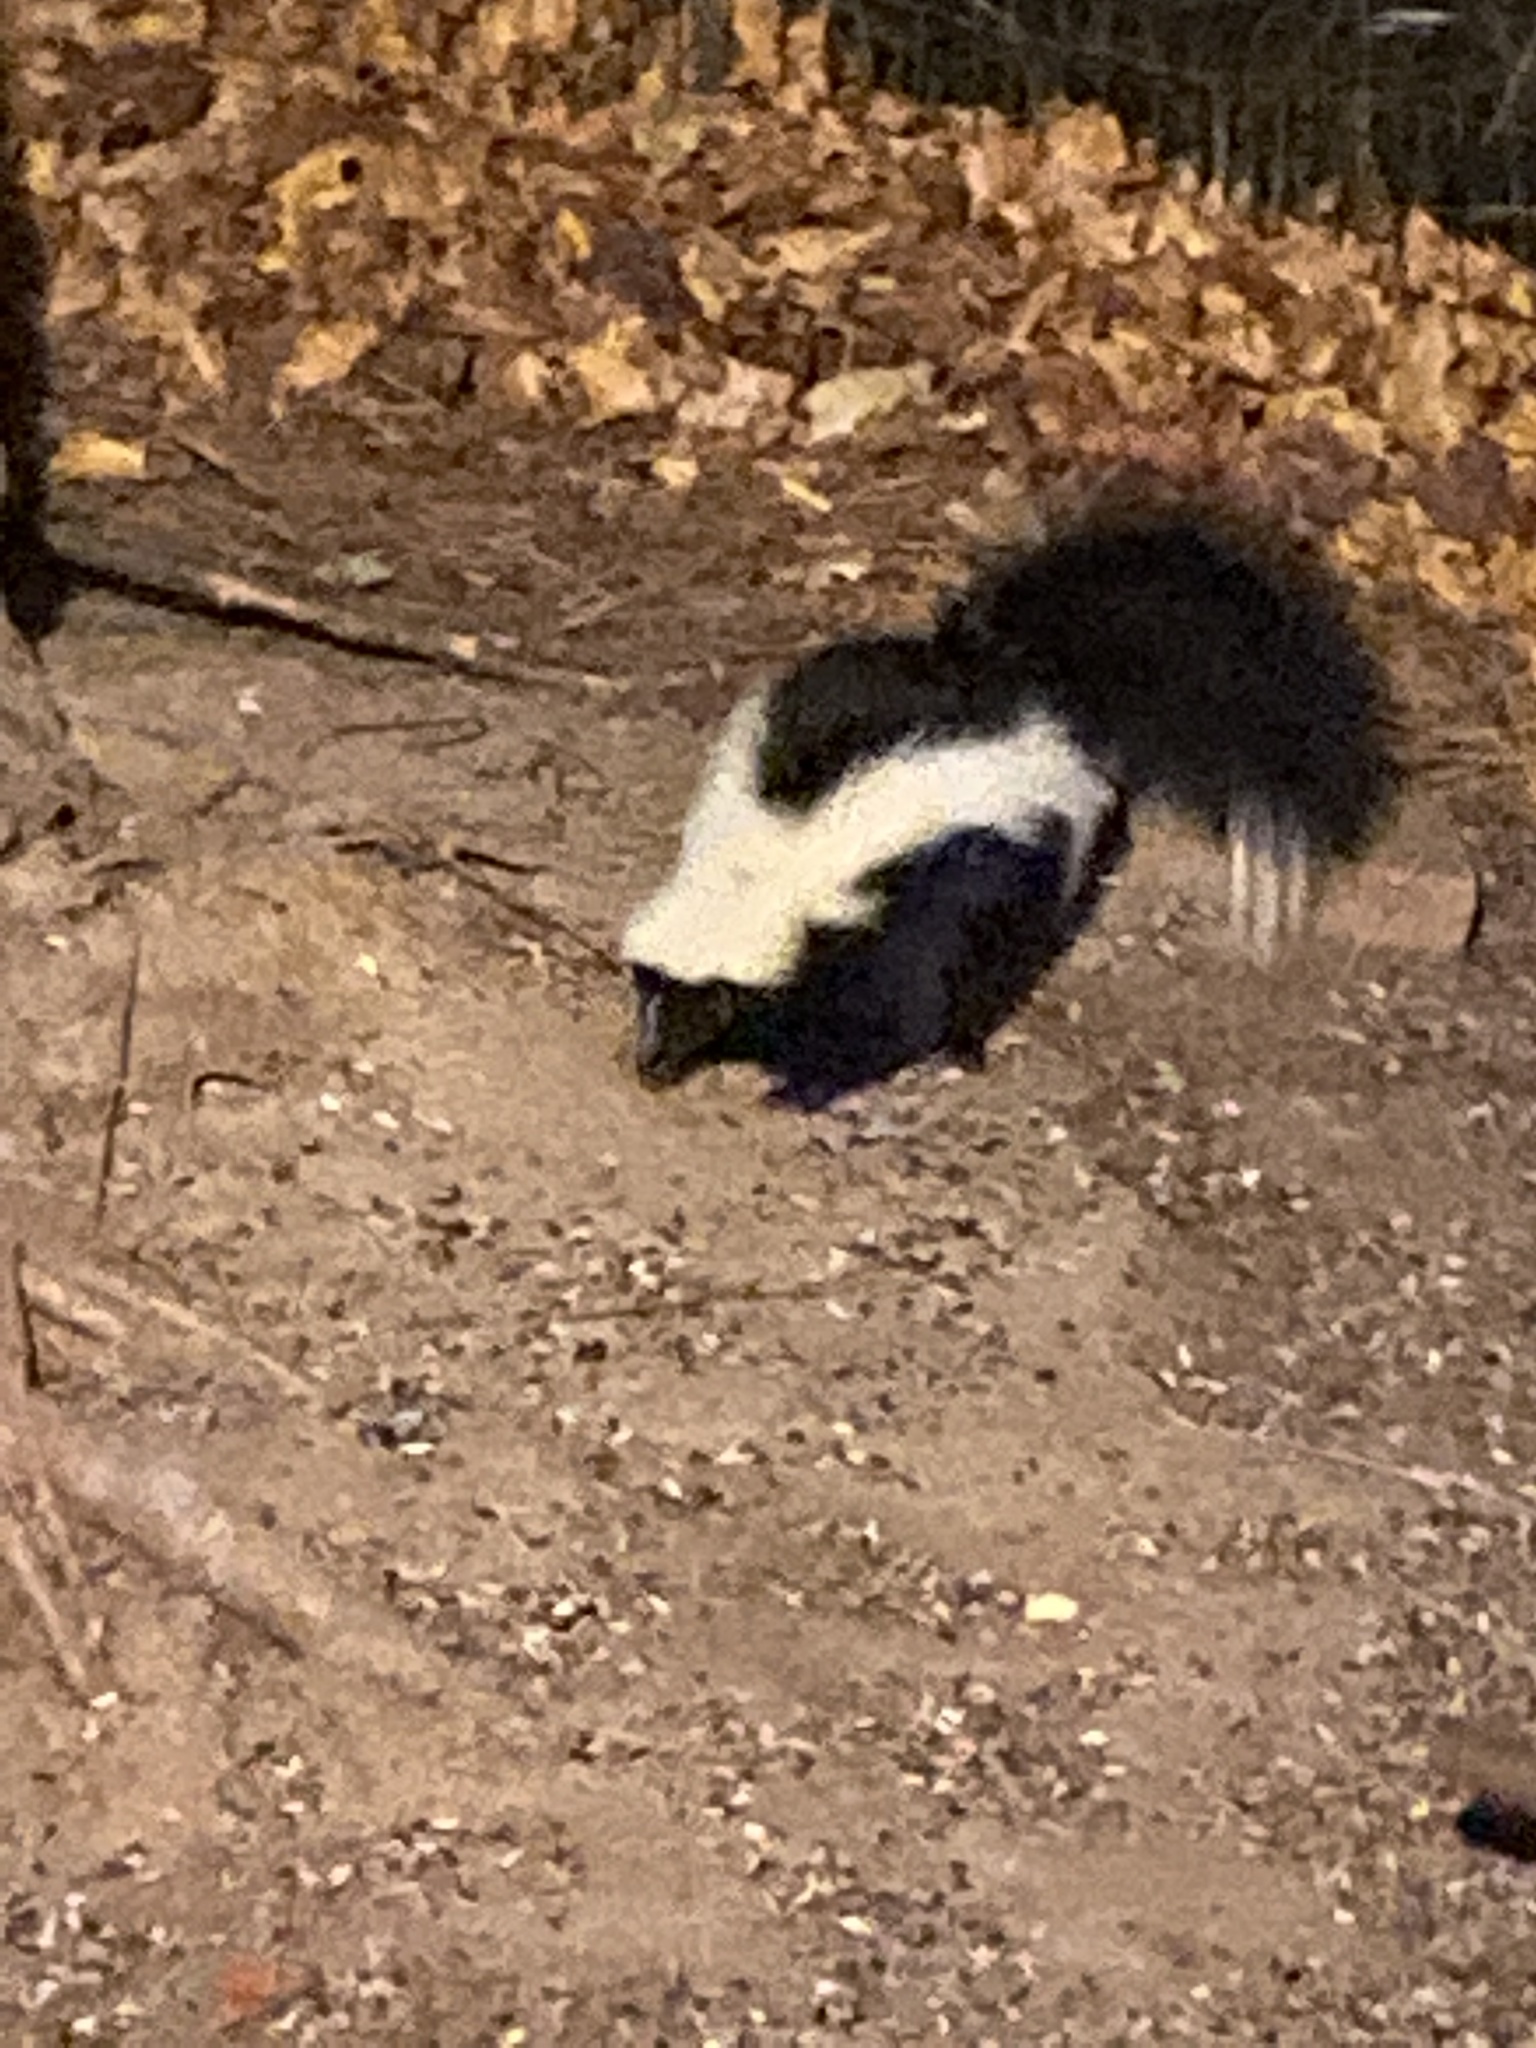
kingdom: Animalia
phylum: Chordata
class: Mammalia
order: Carnivora
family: Mephitidae
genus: Mephitis
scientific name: Mephitis mephitis
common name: Striped skunk
